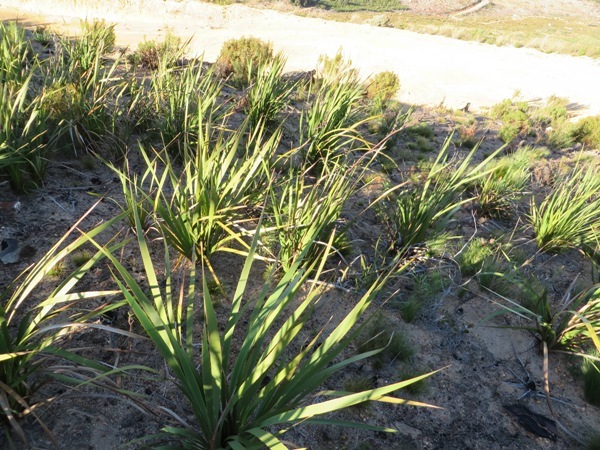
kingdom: Plantae
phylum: Tracheophyta
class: Liliopsida
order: Asparagales
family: Iridaceae
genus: Aristea
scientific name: Aristea capitata
